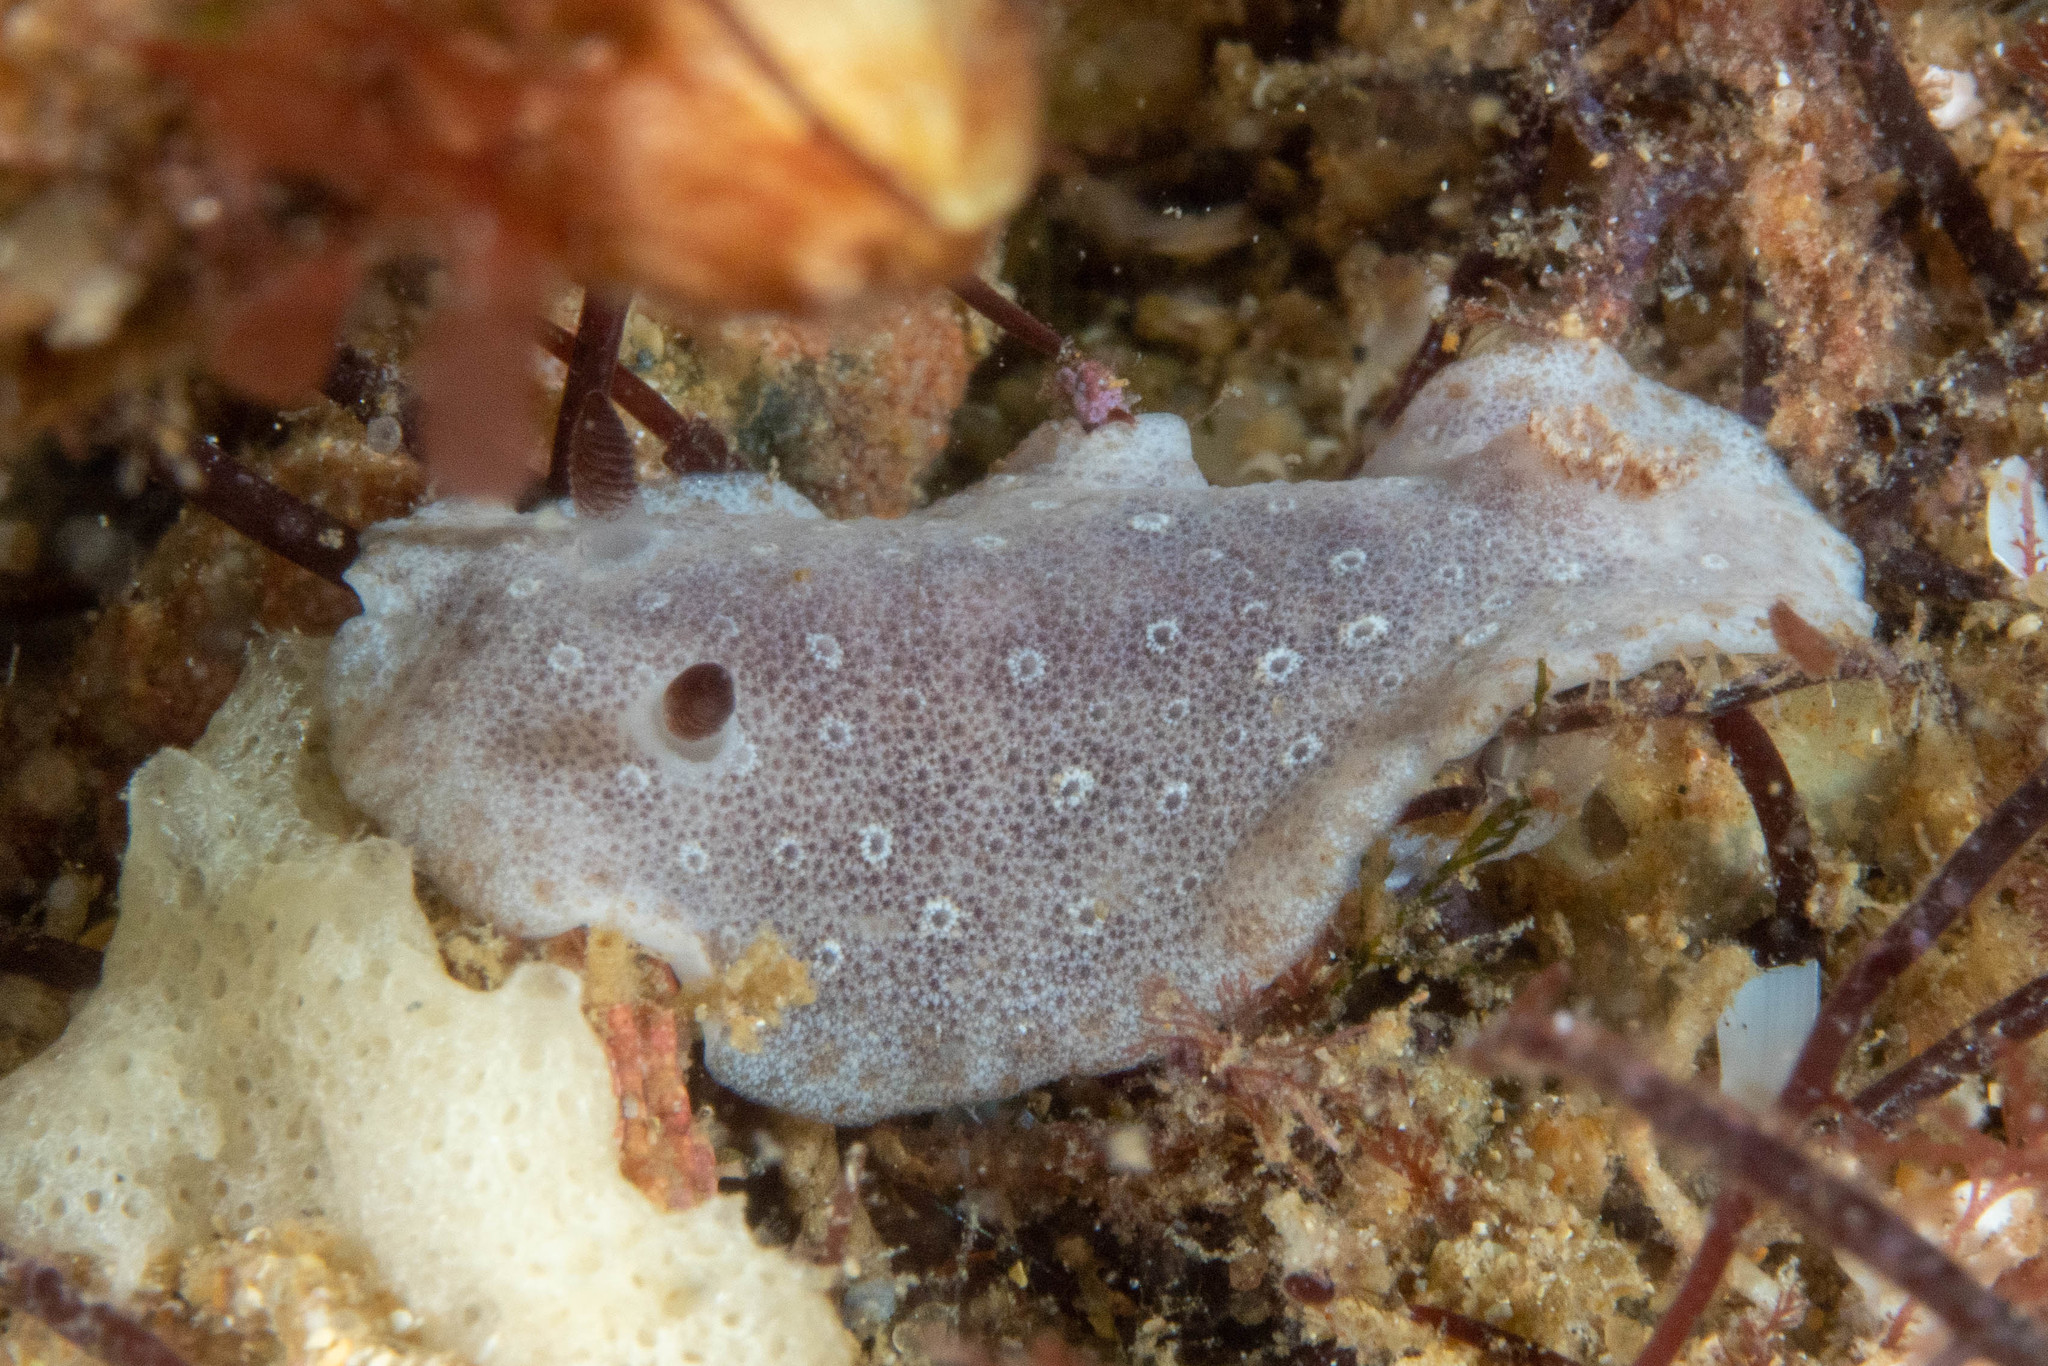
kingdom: Animalia
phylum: Mollusca
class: Gastropoda
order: Nudibranchia
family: Discodorididae
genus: Paradoris
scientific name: Paradoris dubia
